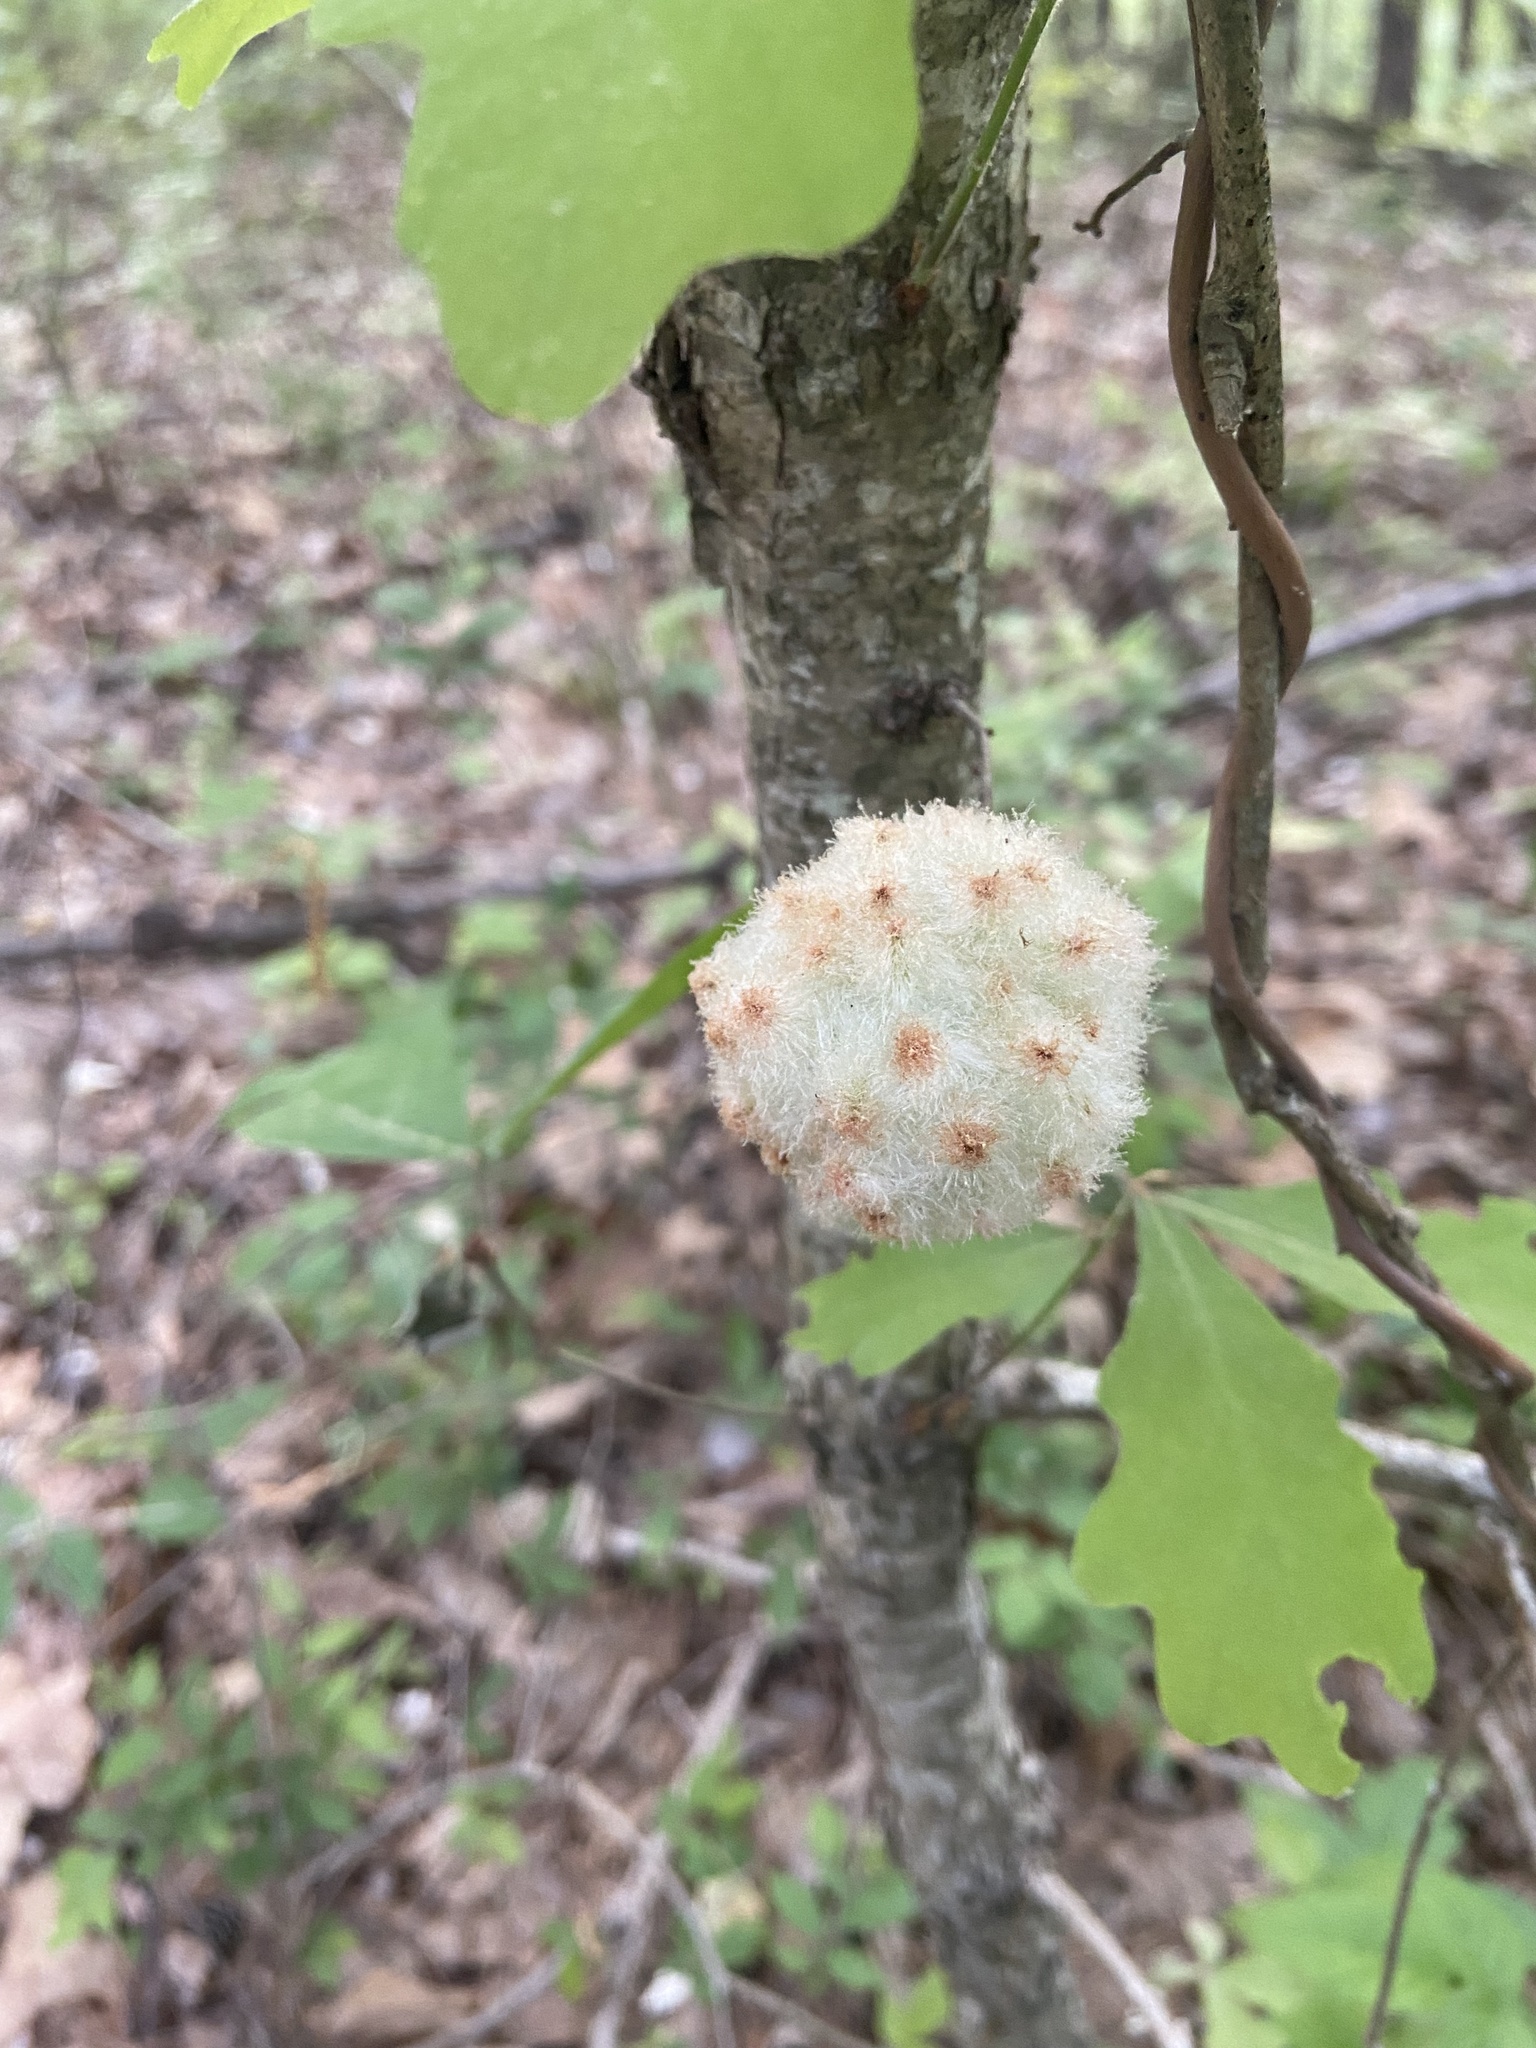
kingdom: Animalia
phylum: Arthropoda
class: Insecta
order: Hymenoptera
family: Cynipidae
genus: Callirhytis
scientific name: Callirhytis
